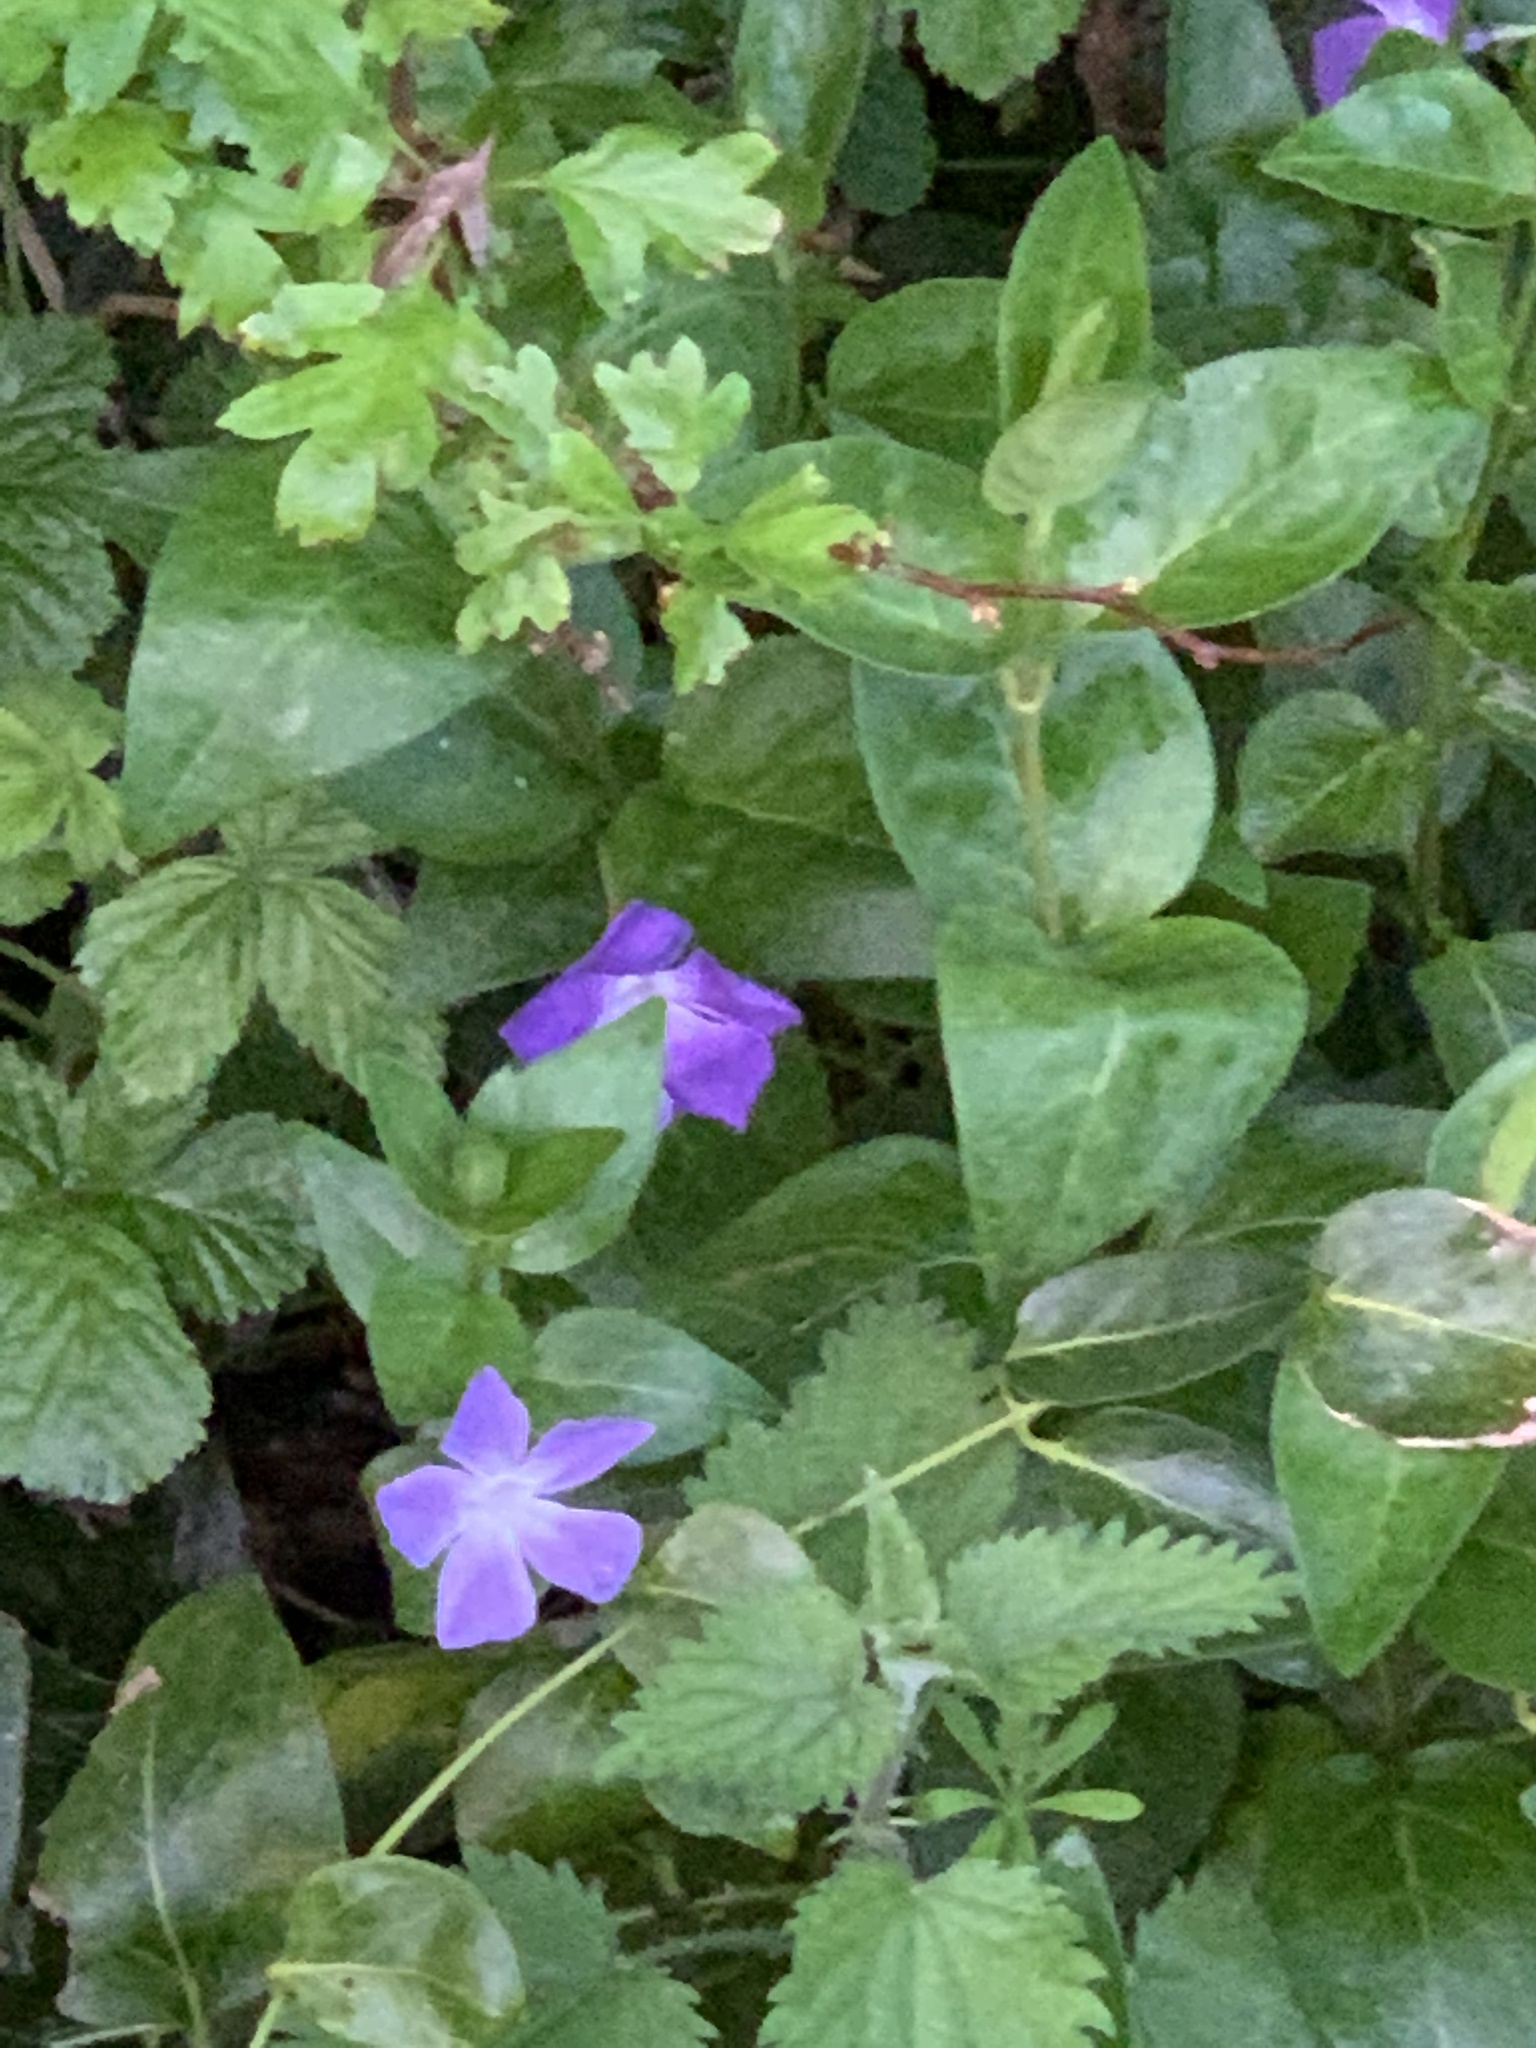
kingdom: Plantae
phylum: Tracheophyta
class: Magnoliopsida
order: Gentianales
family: Apocynaceae
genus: Vinca
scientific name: Vinca major
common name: Greater periwinkle
